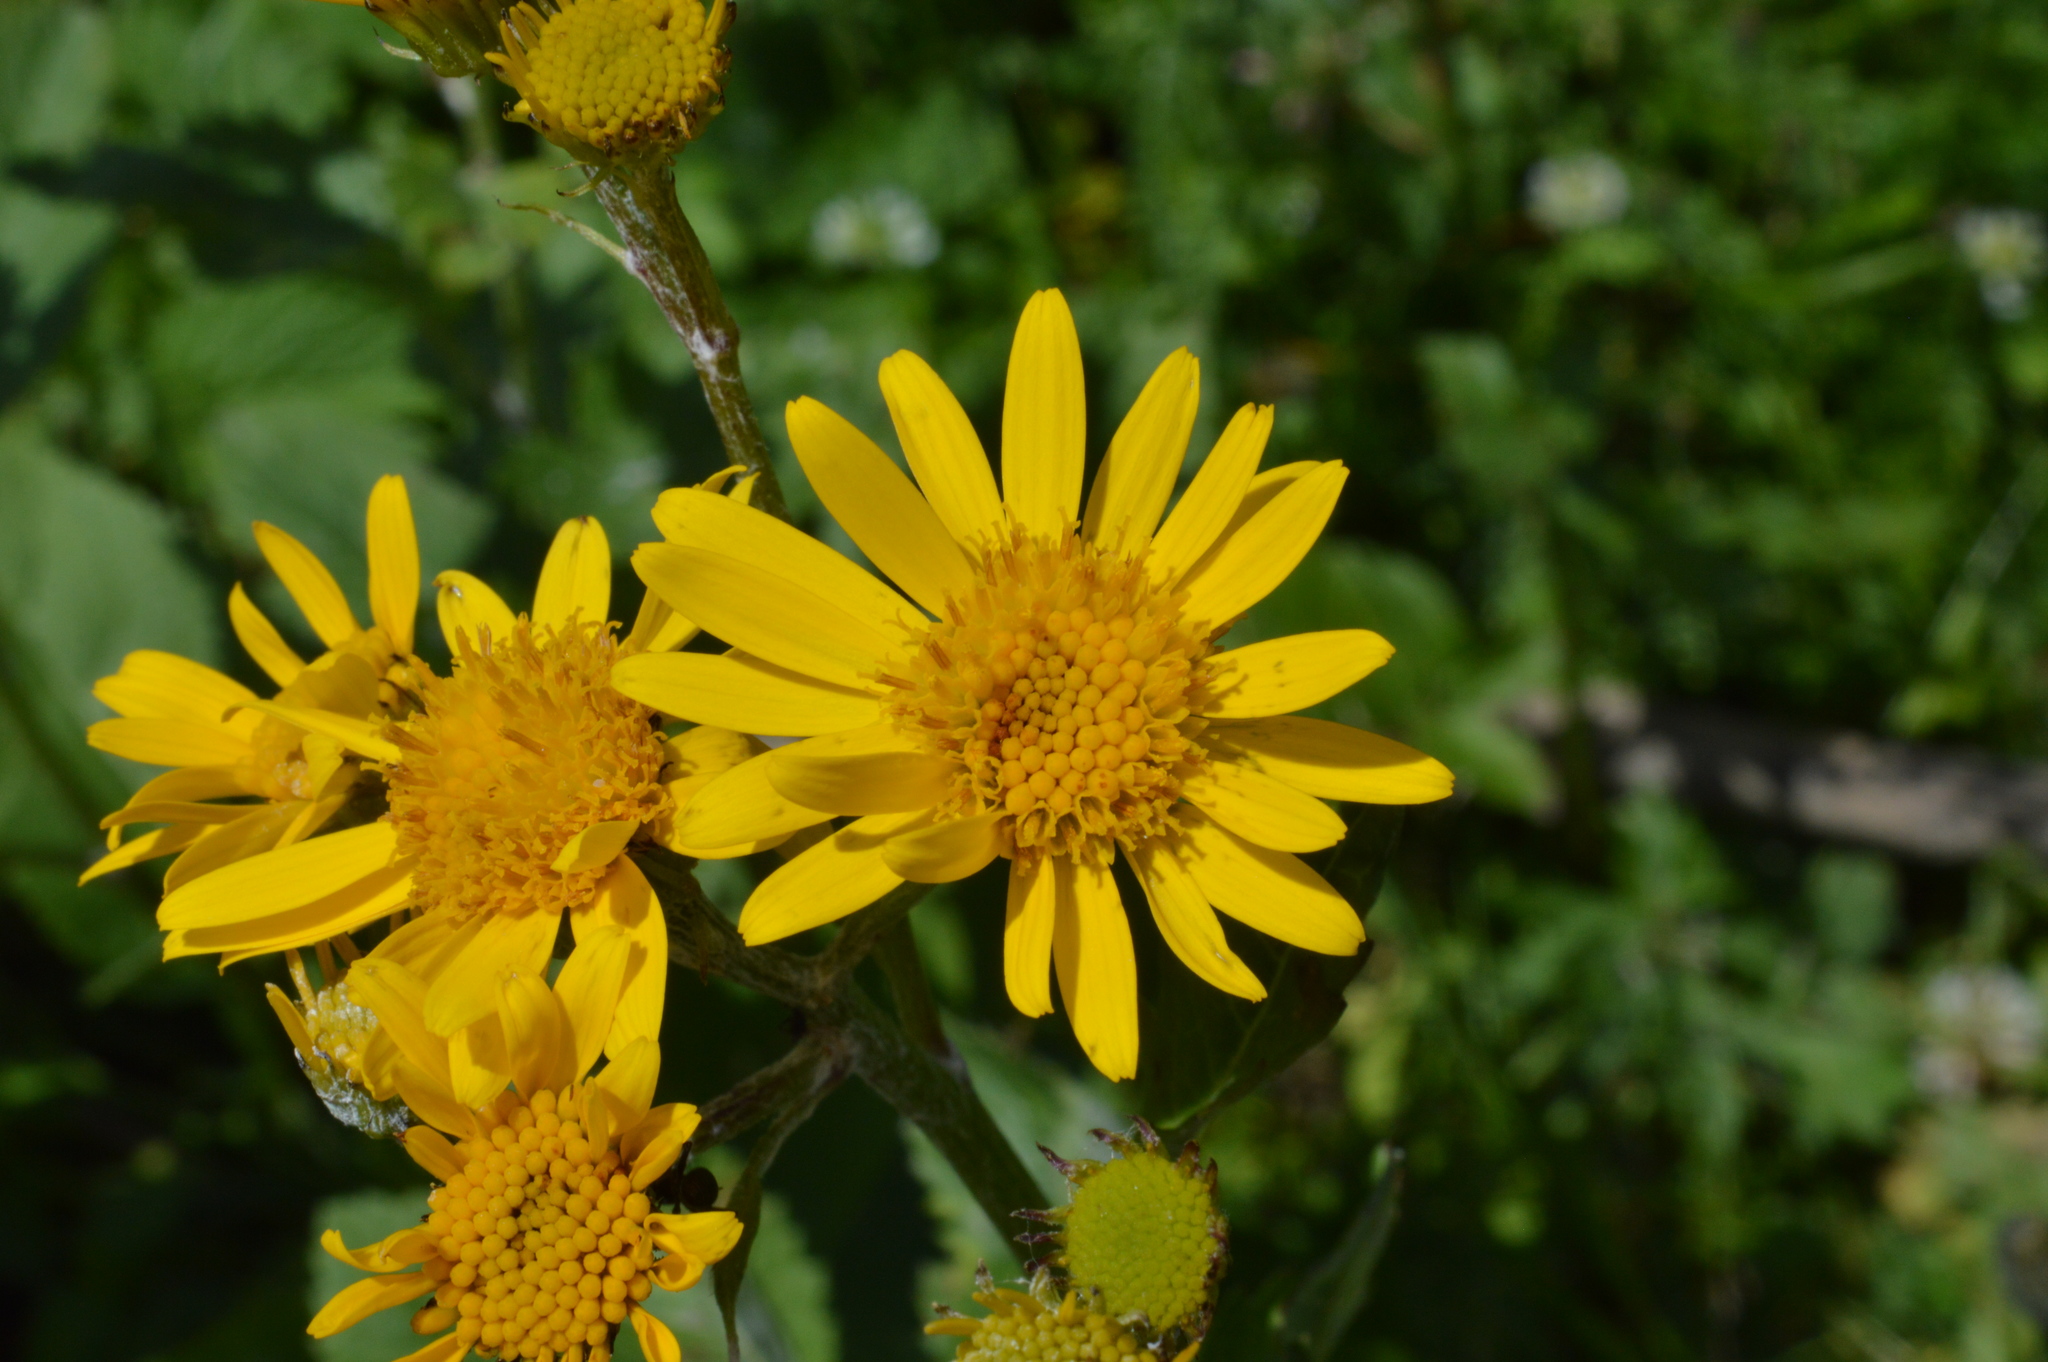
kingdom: Plantae
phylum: Tracheophyta
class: Magnoliopsida
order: Asterales
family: Asteraceae
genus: Jacobaea
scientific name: Jacobaea alpina
